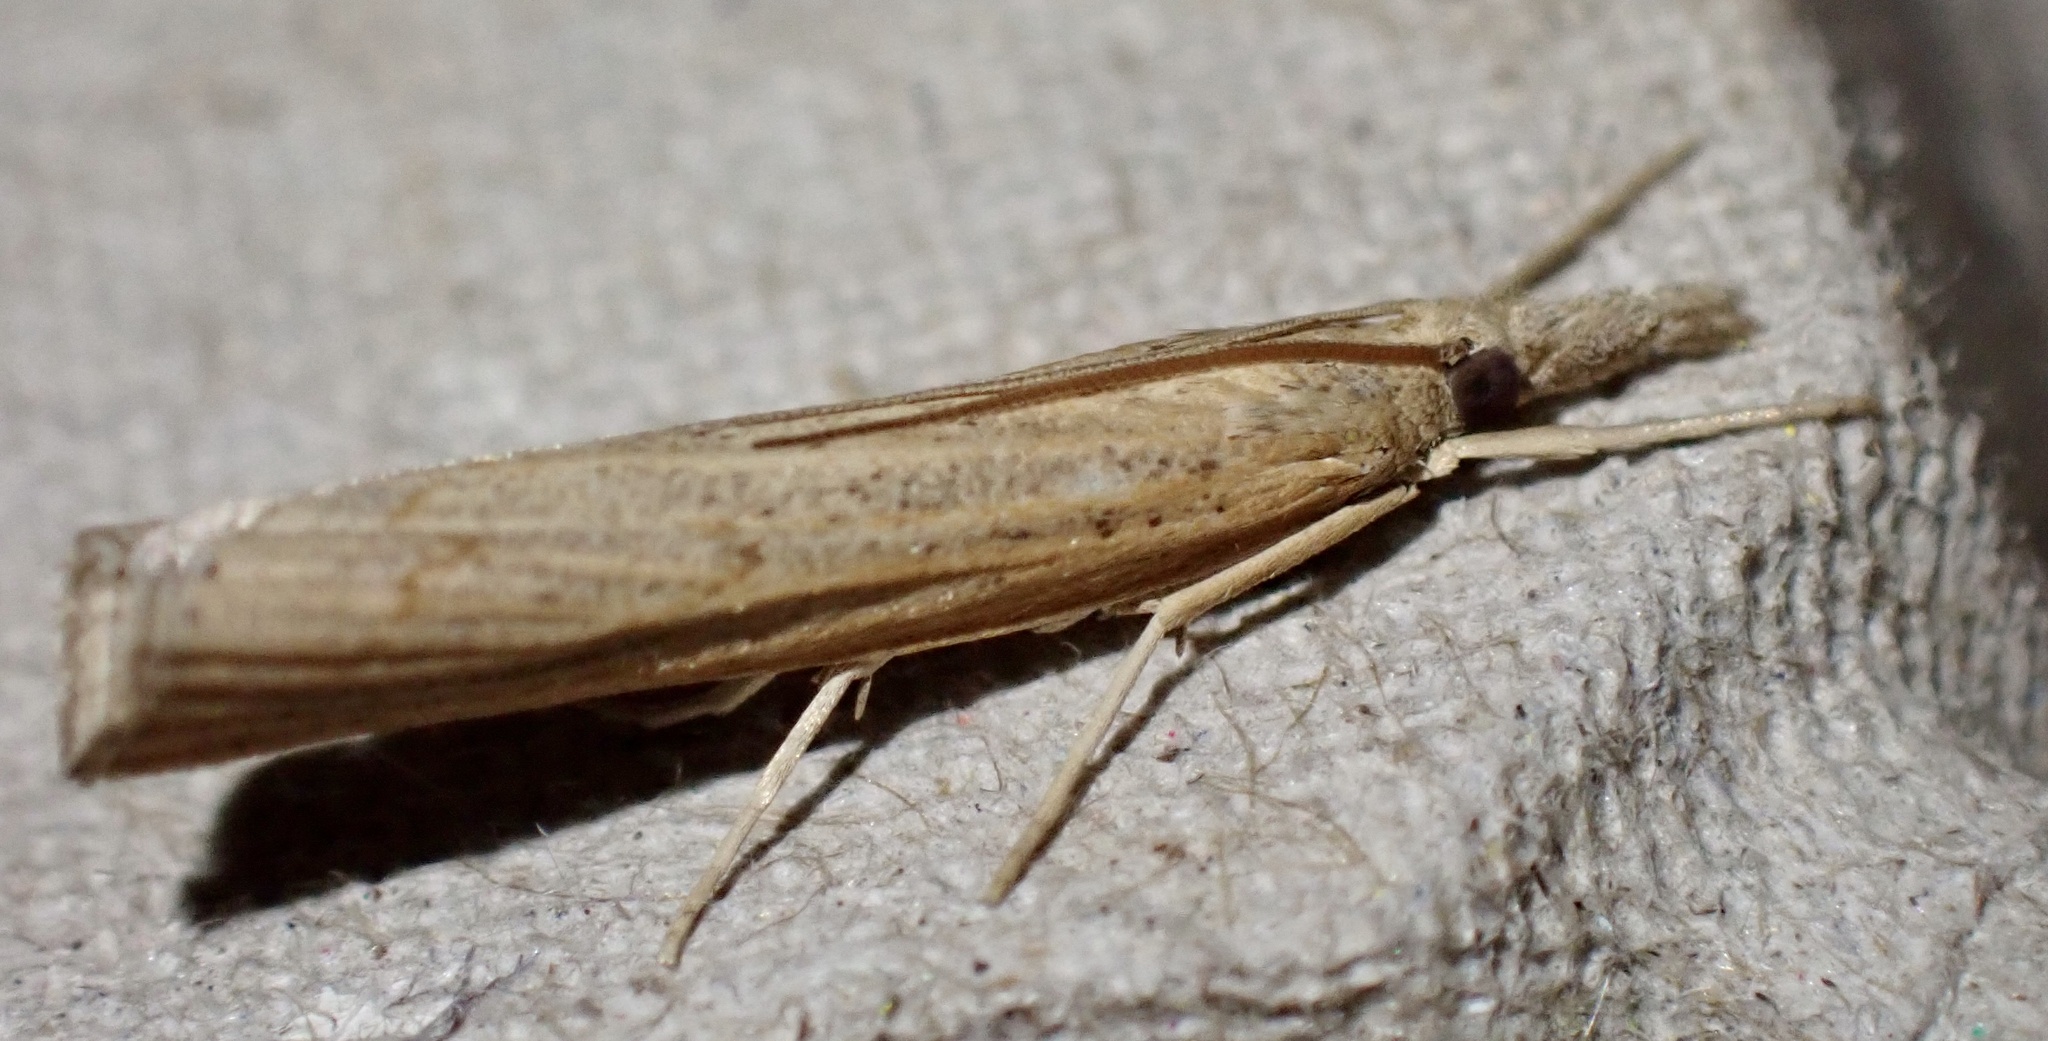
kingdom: Animalia
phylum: Arthropoda
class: Insecta
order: Lepidoptera
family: Crambidae
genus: Pediasia
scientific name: Pediasia contaminella
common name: Waste grass-veneer
